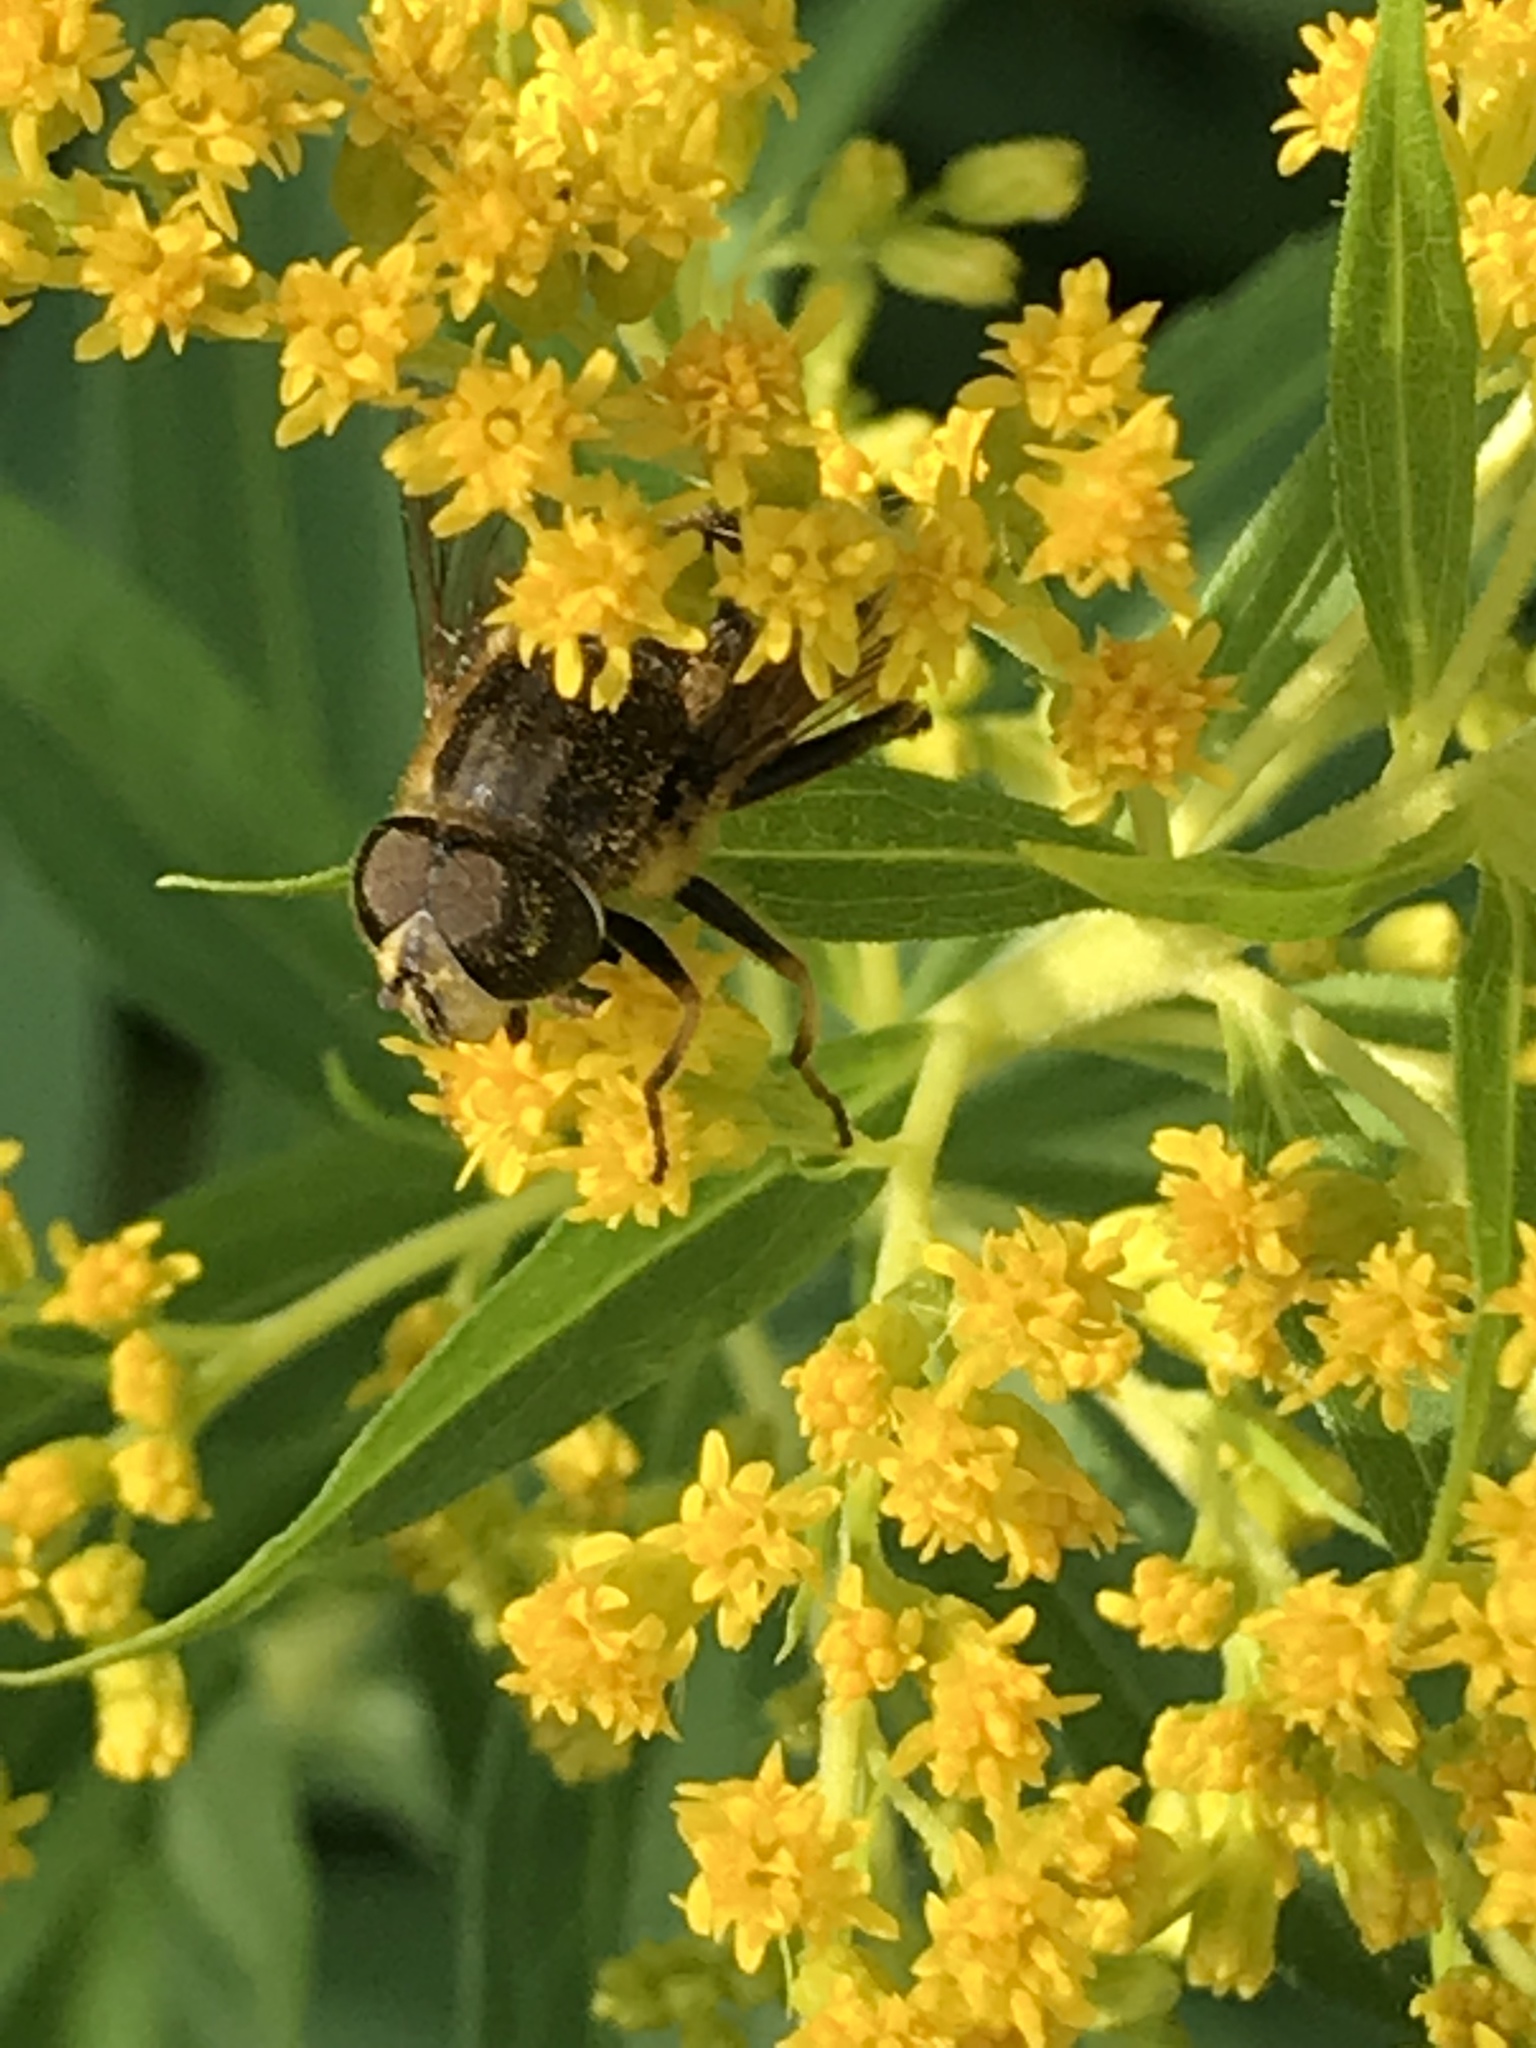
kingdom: Animalia
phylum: Arthropoda
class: Insecta
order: Diptera
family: Syrphidae
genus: Eoseristalis
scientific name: Eoseristalis
